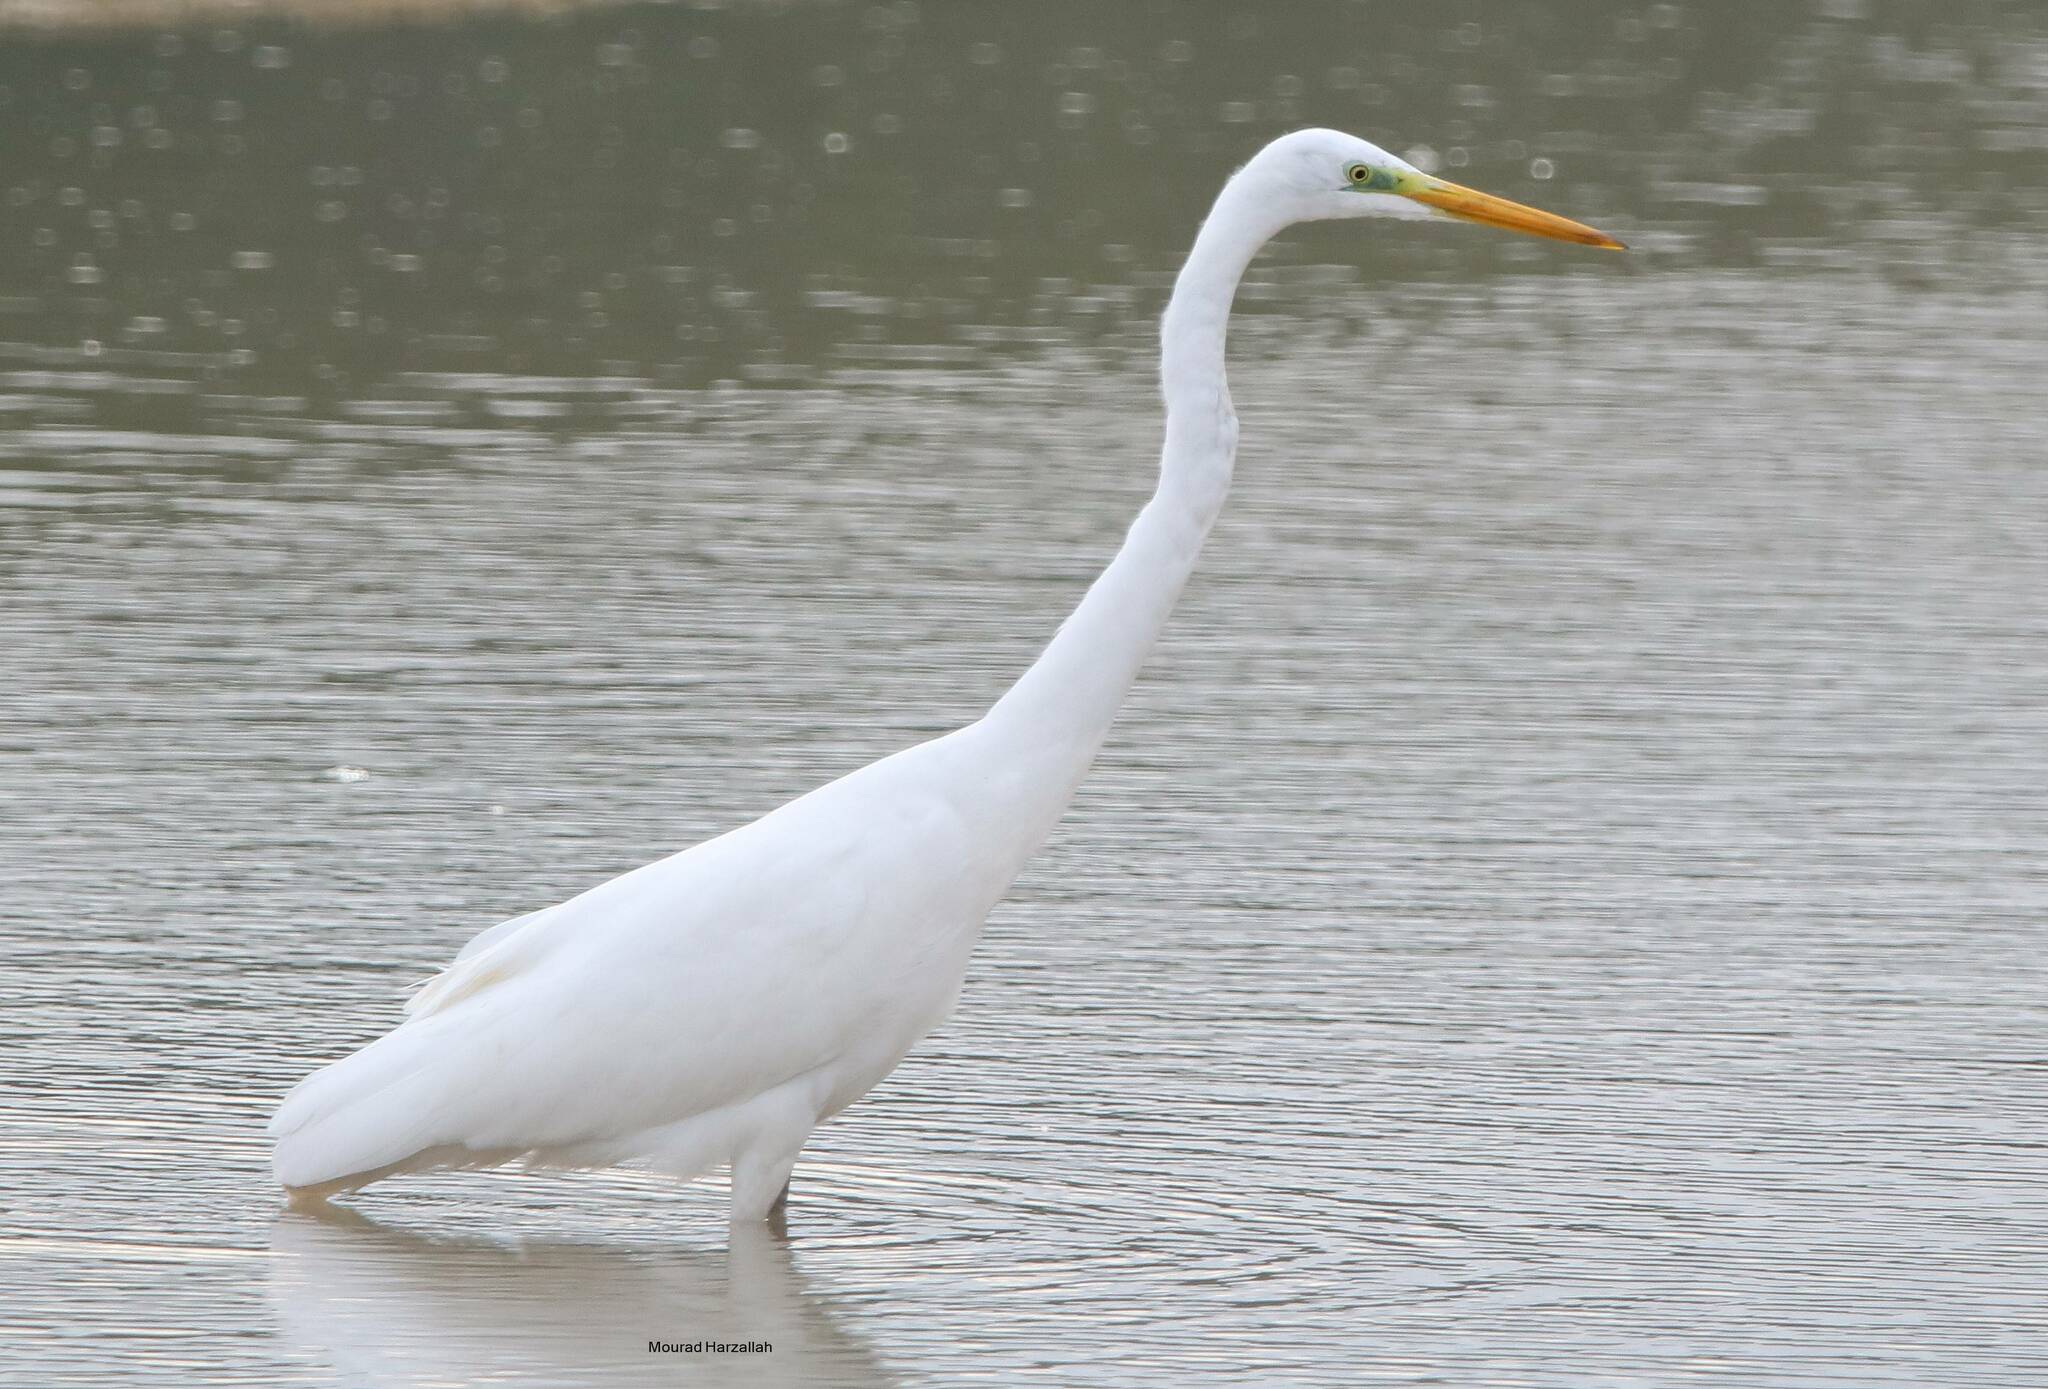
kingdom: Animalia
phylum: Chordata
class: Aves
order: Pelecaniformes
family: Ardeidae
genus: Ardea
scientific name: Ardea alba
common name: Great egret
